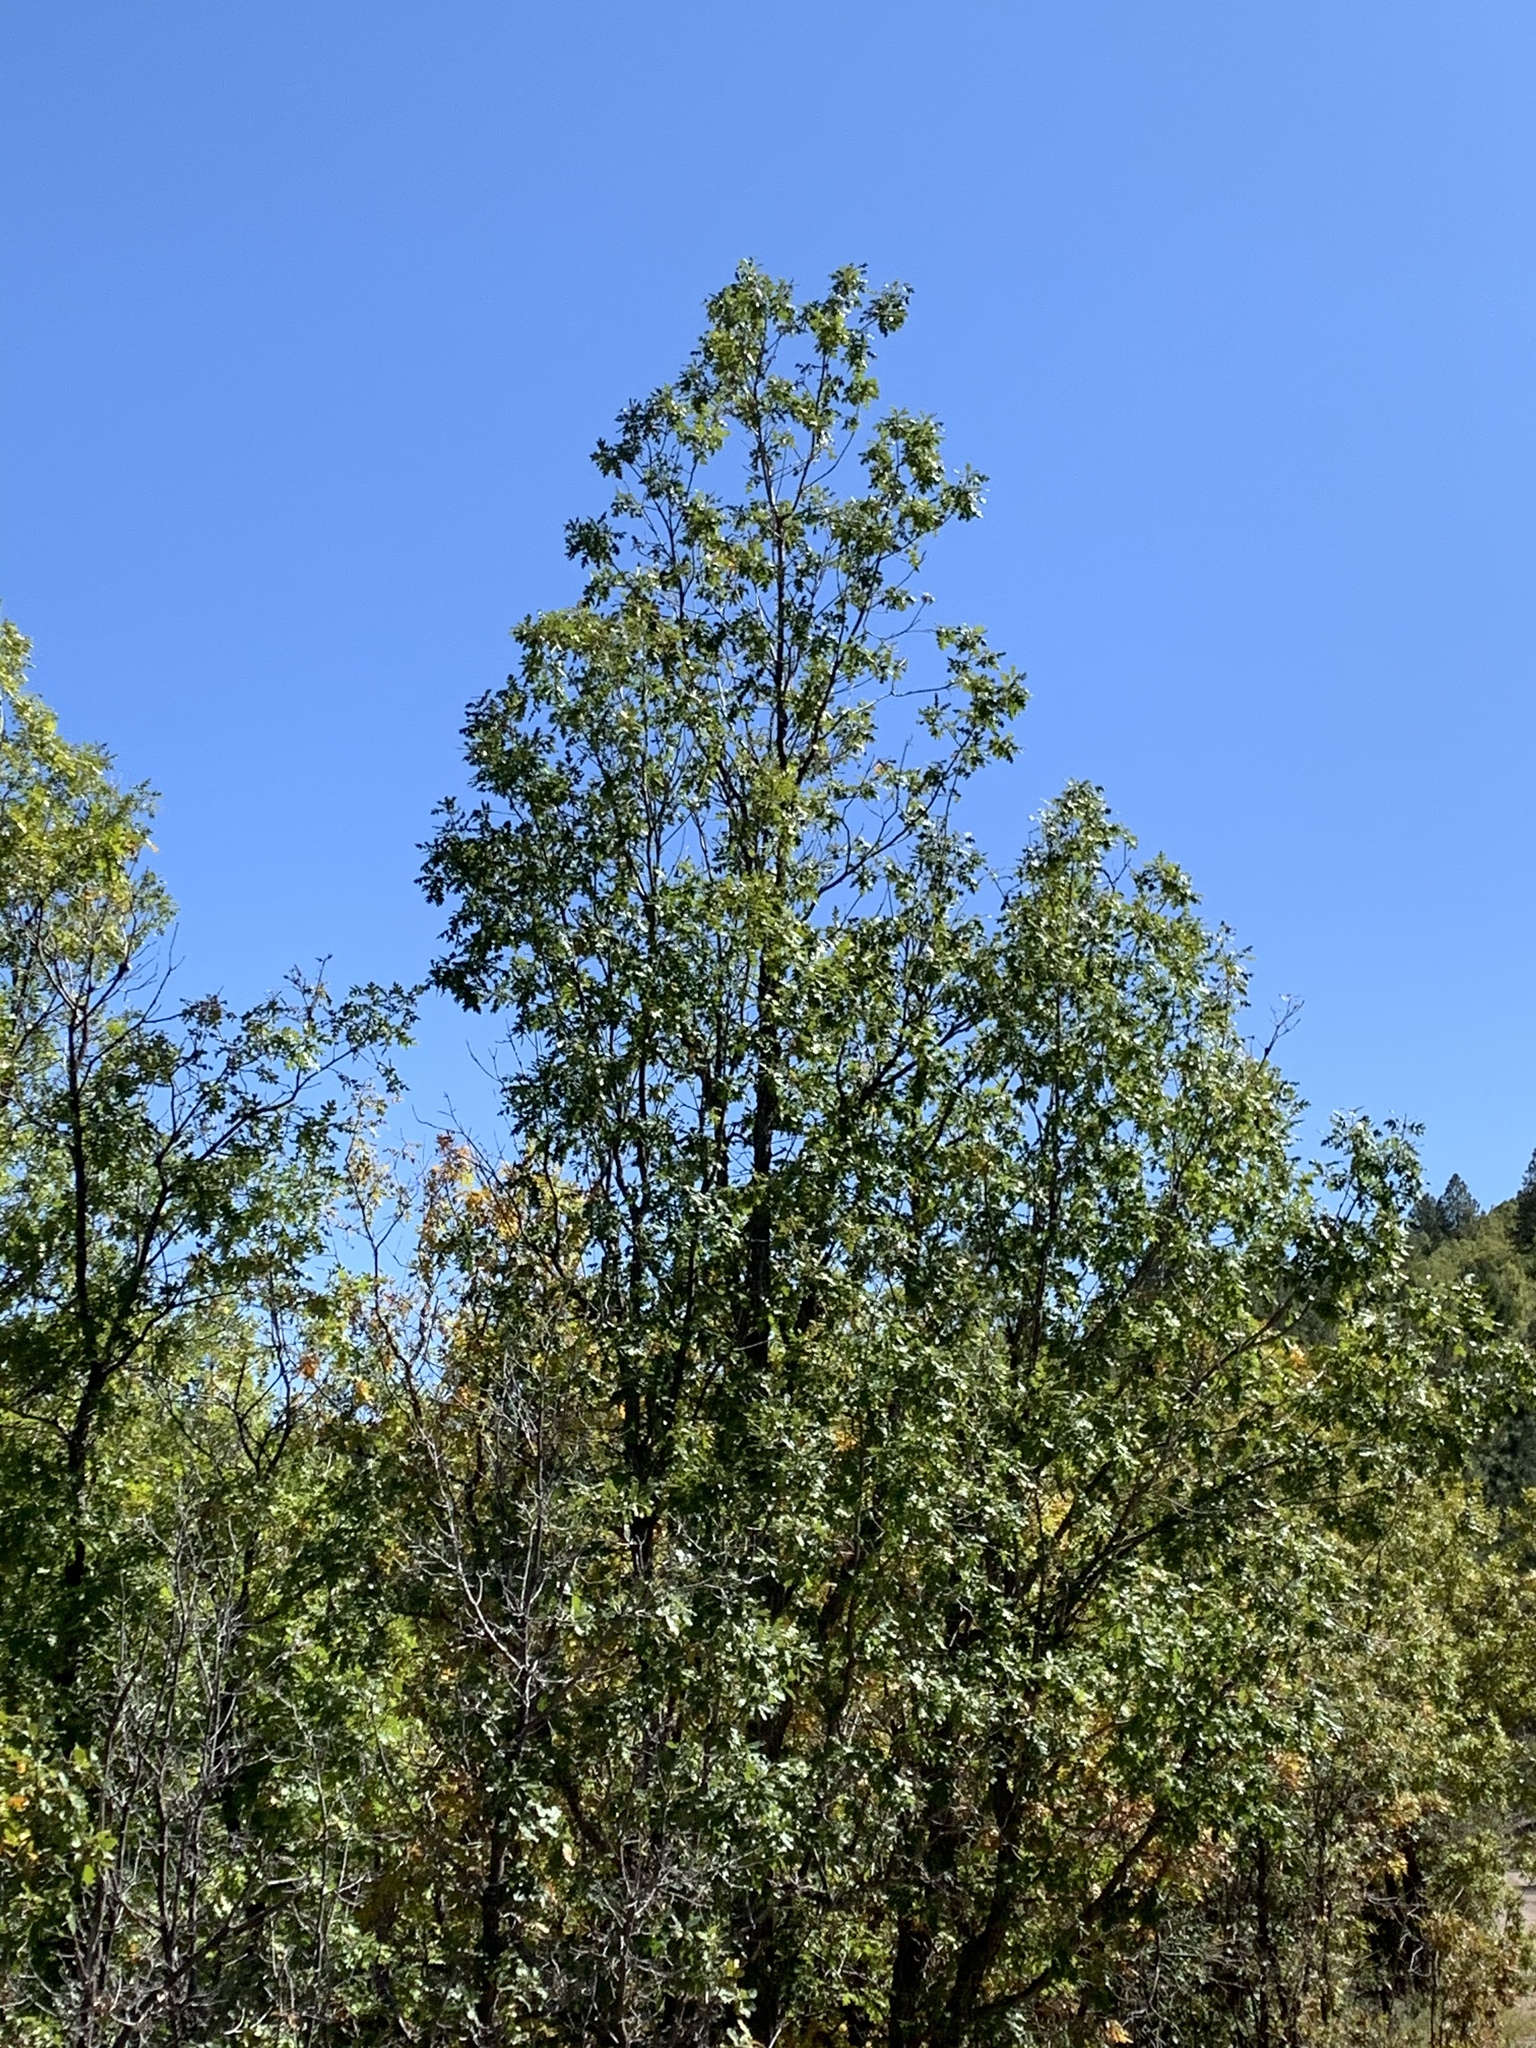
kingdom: Plantae
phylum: Tracheophyta
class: Magnoliopsida
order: Fagales
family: Fagaceae
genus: Quercus
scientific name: Quercus gambelii
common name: Gambel oak
